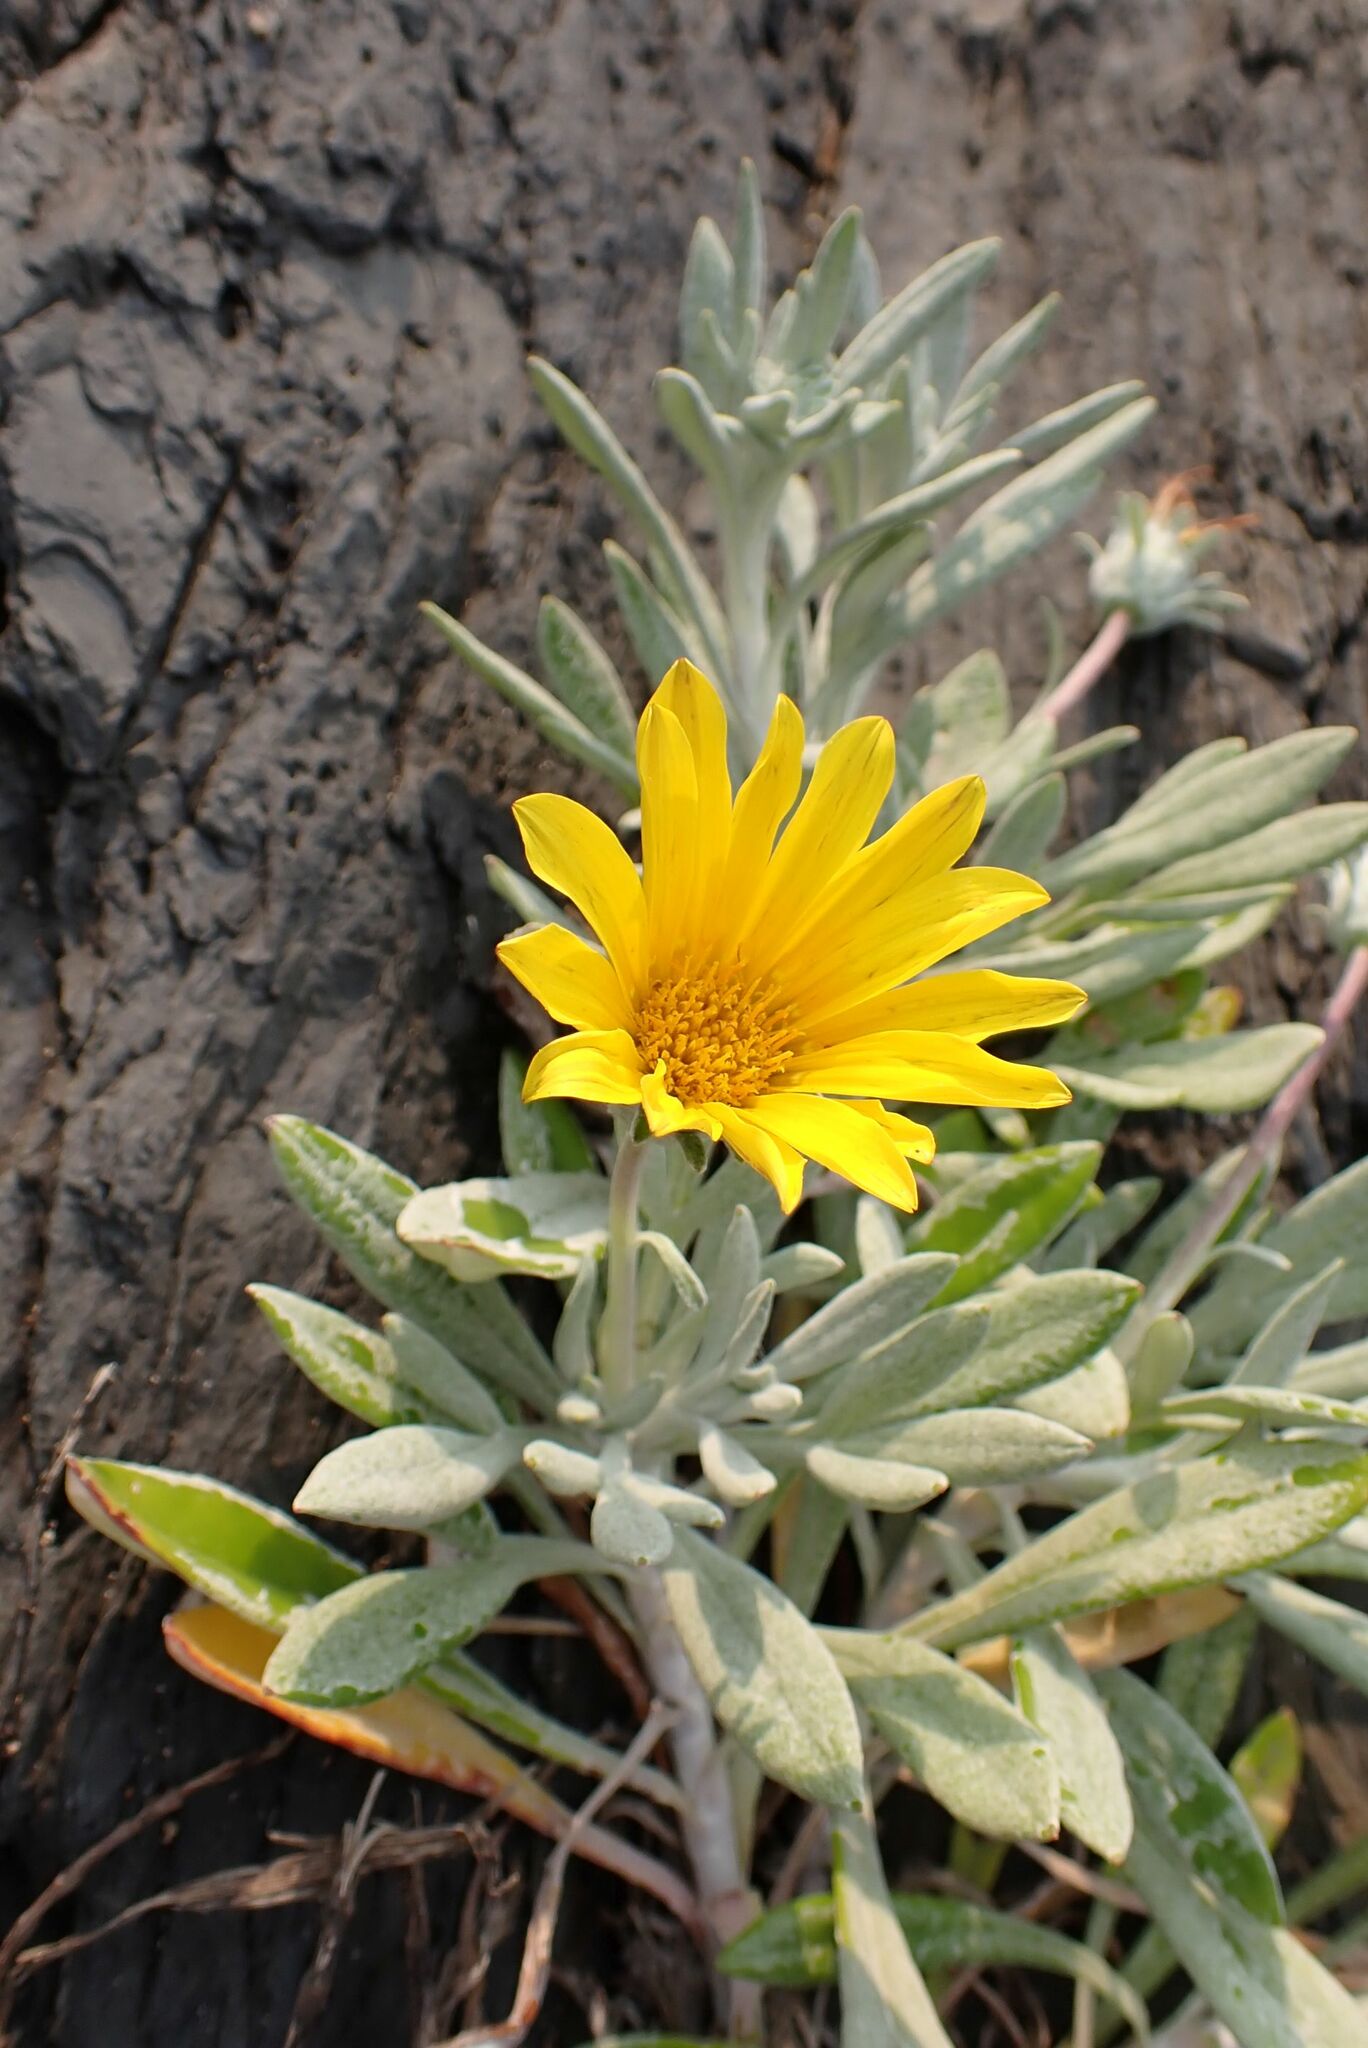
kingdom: Plantae
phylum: Tracheophyta
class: Magnoliopsida
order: Asterales
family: Asteraceae
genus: Gazania
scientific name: Gazania rigens
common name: Treasureflower
